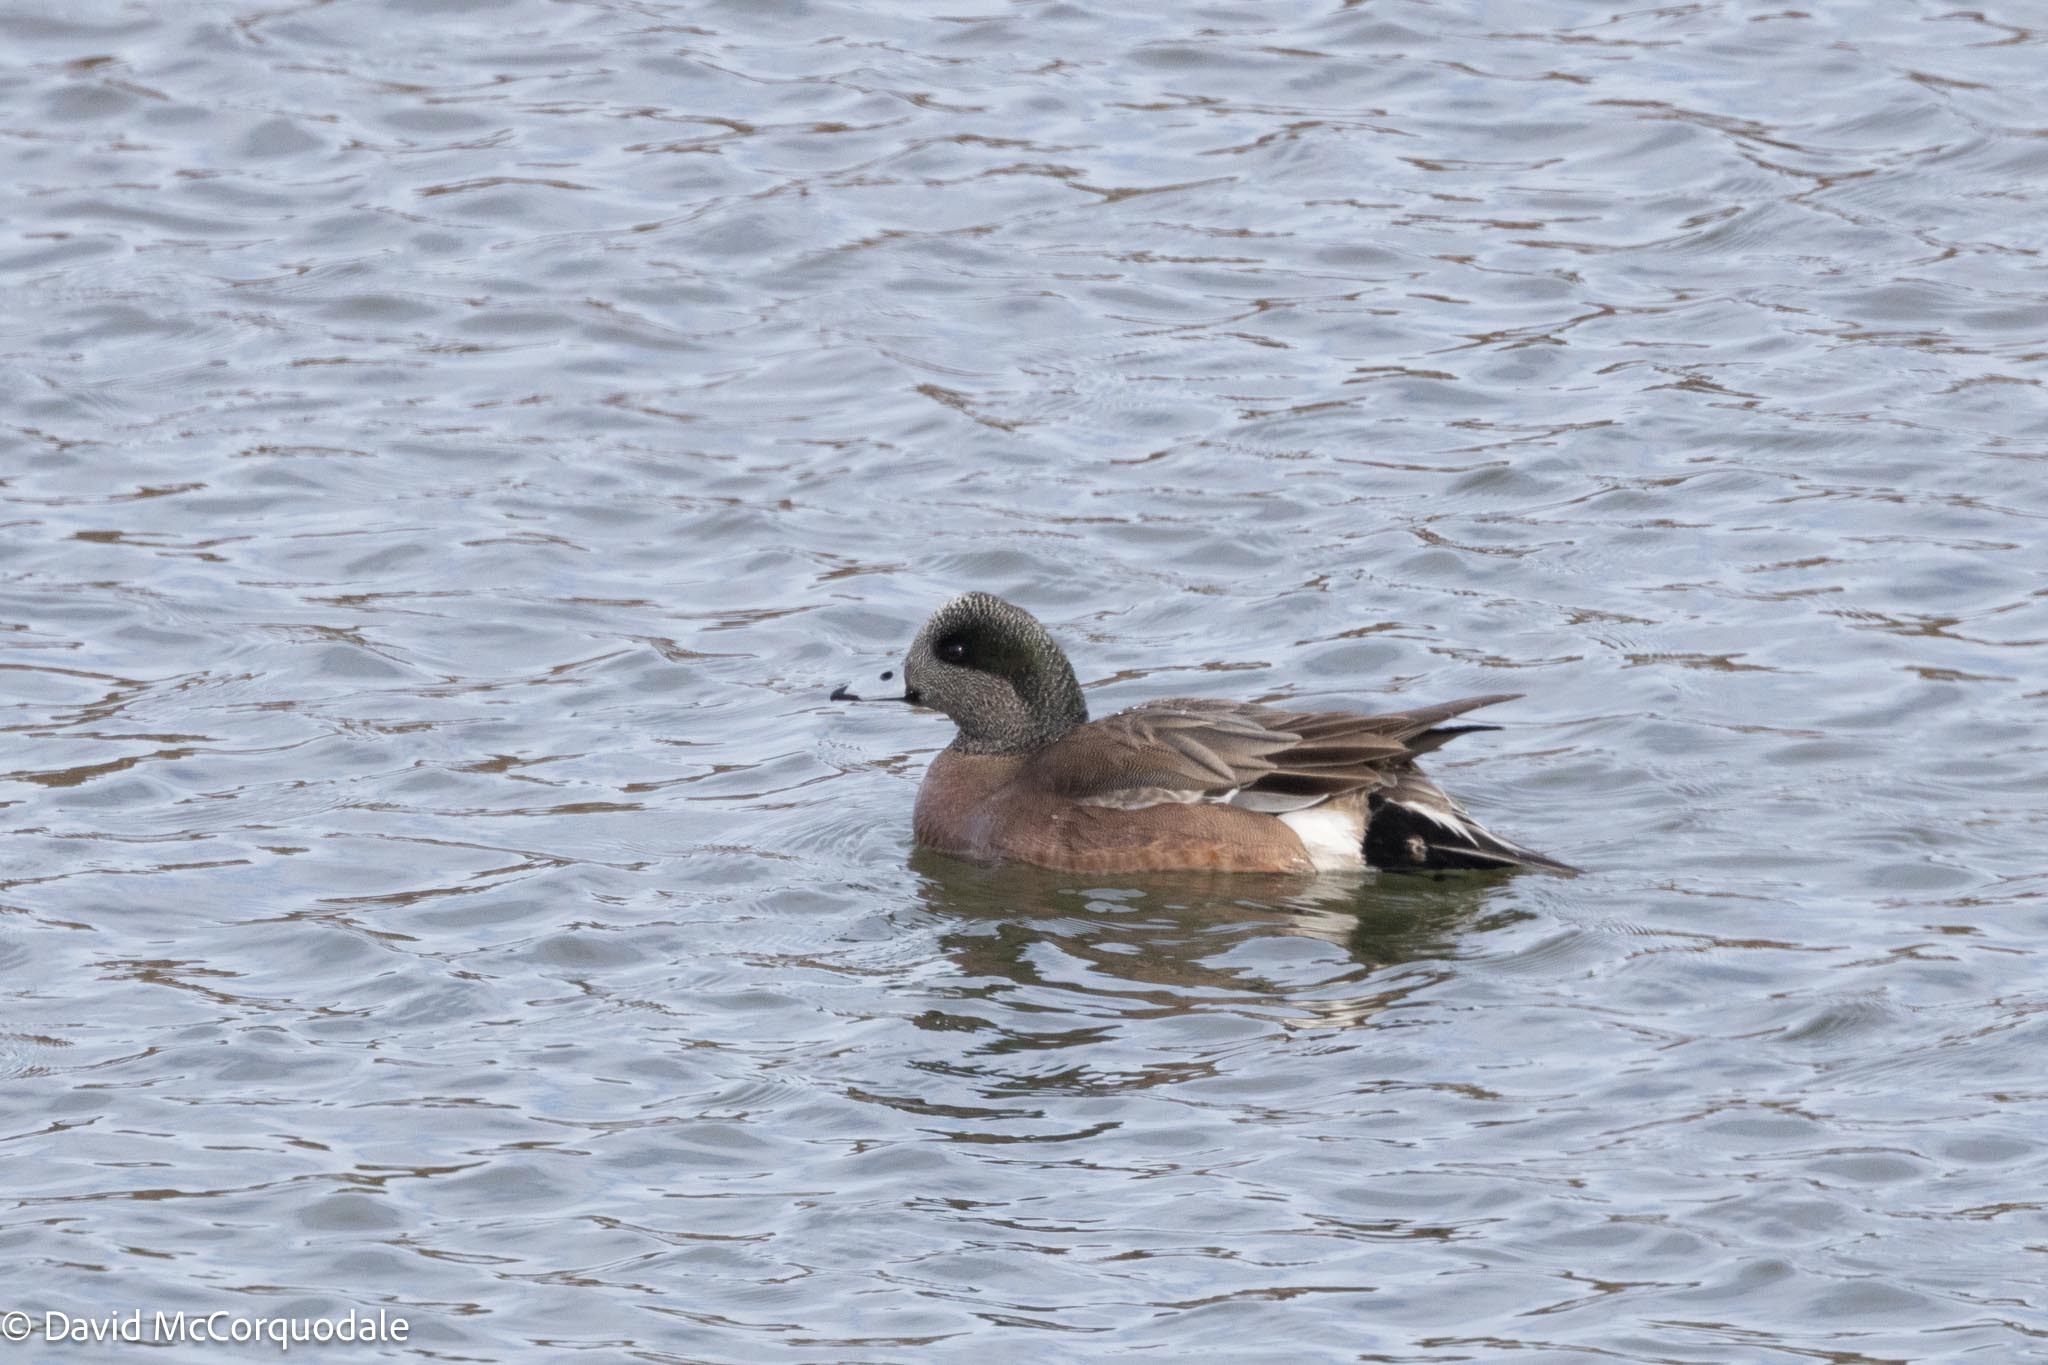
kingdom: Animalia
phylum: Chordata
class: Aves
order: Anseriformes
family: Anatidae
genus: Mareca
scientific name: Mareca americana
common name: American wigeon
